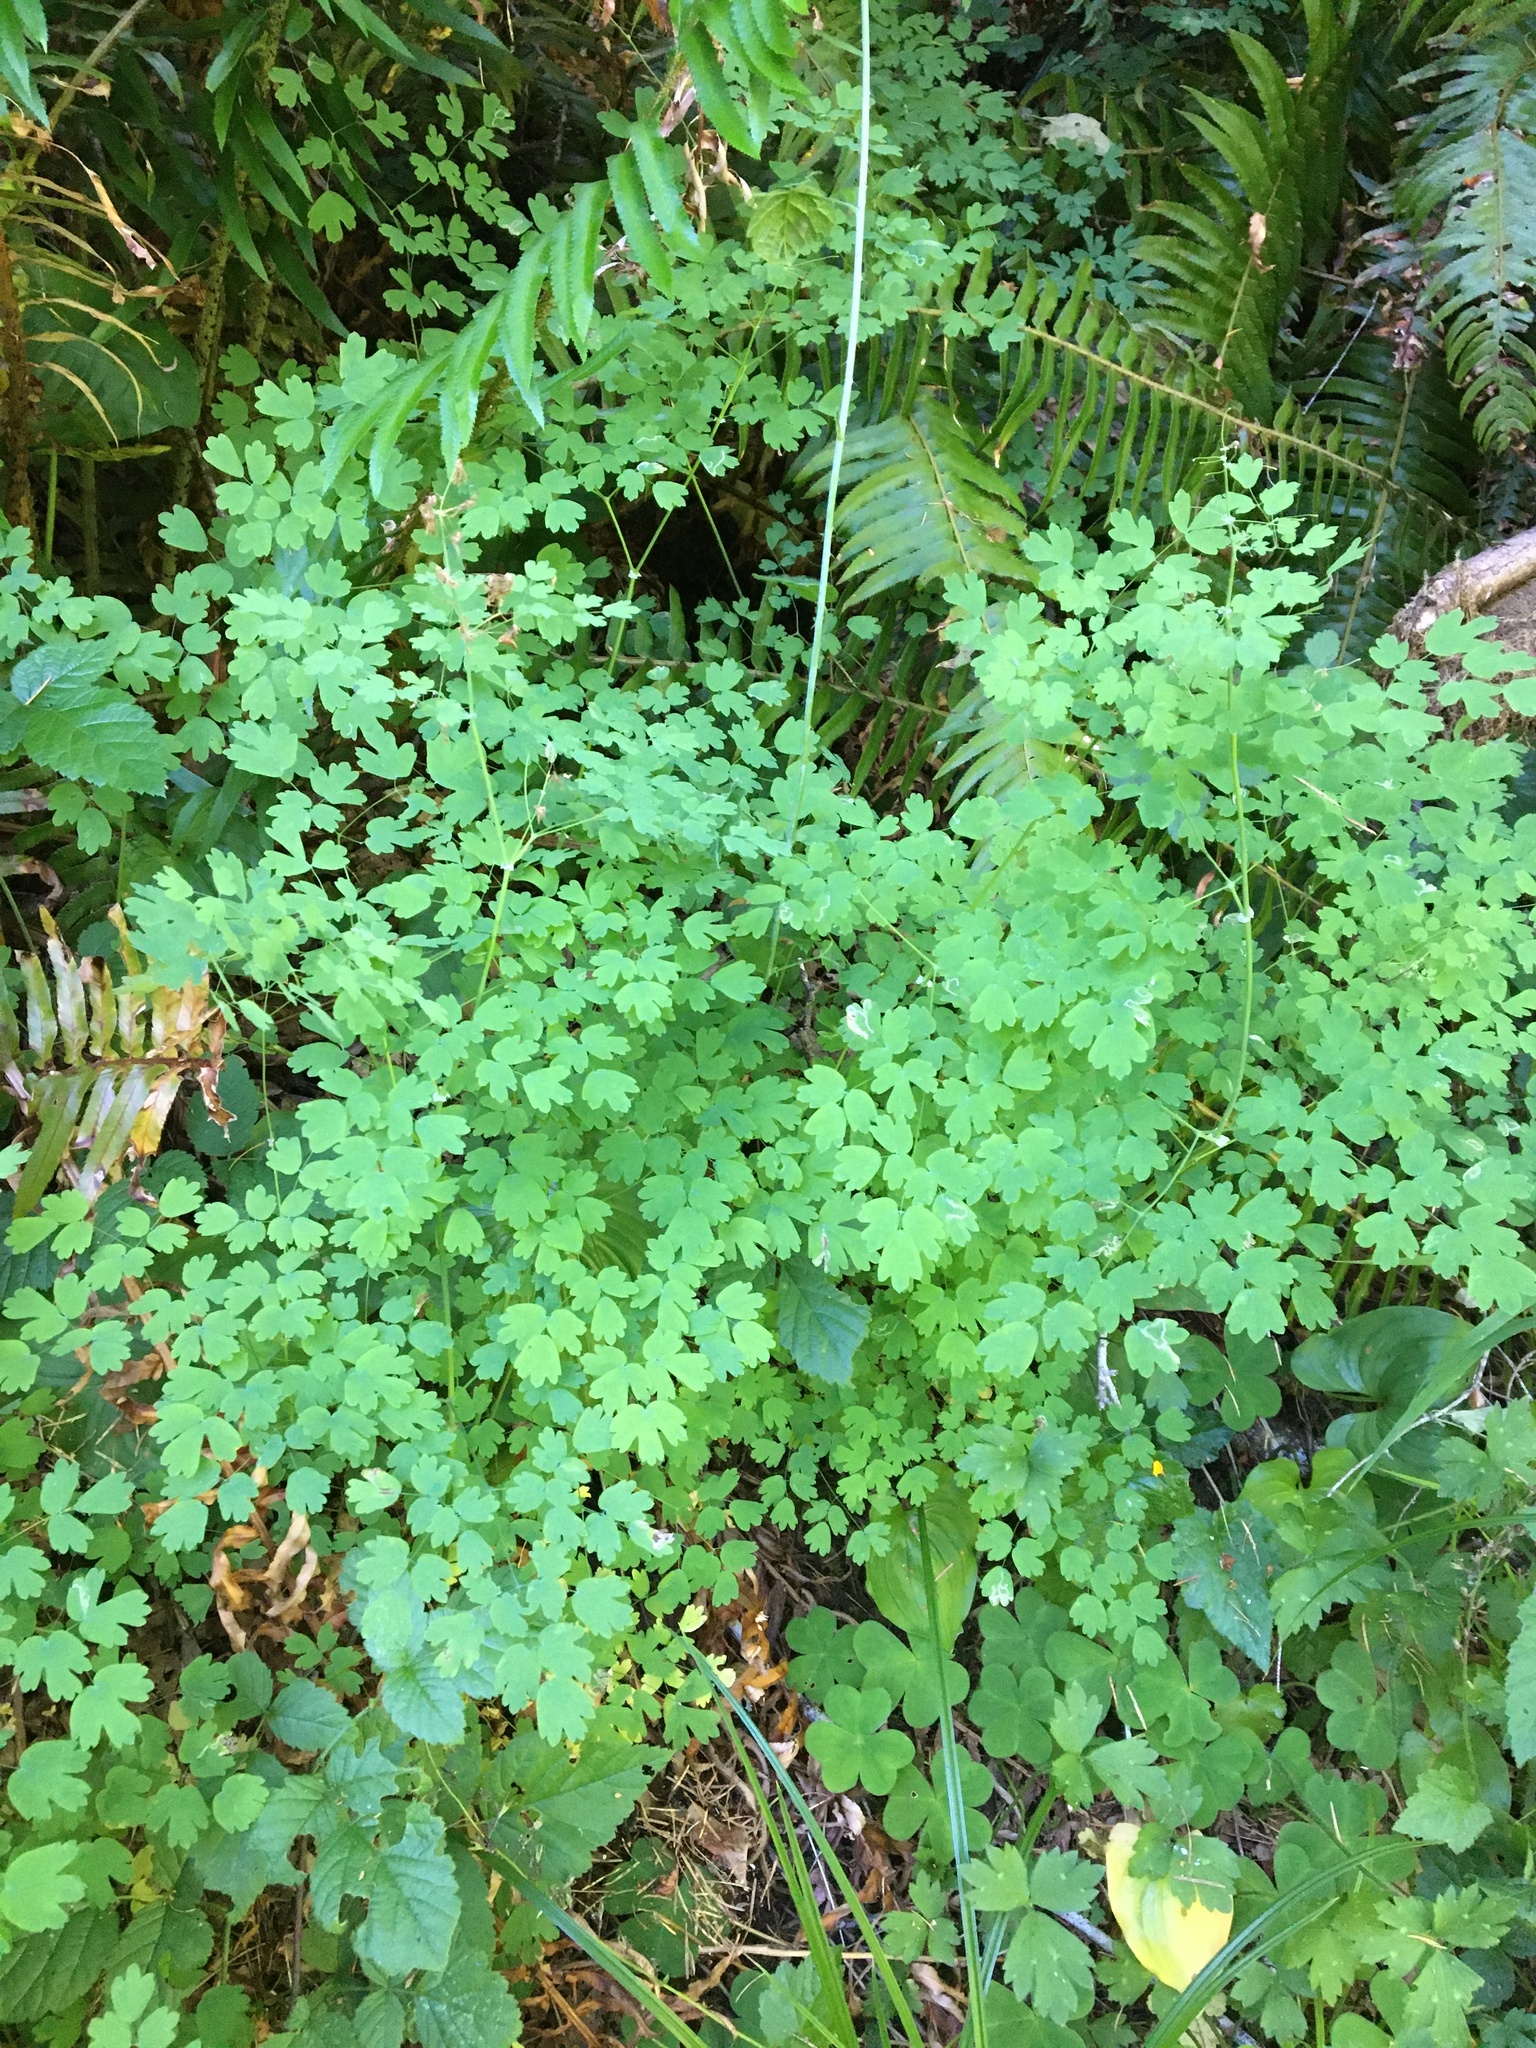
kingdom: Plantae
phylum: Tracheophyta
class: Magnoliopsida
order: Ranunculales
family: Ranunculaceae
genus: Thalictrum
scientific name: Thalictrum occidentale
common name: Western meadow-rue
